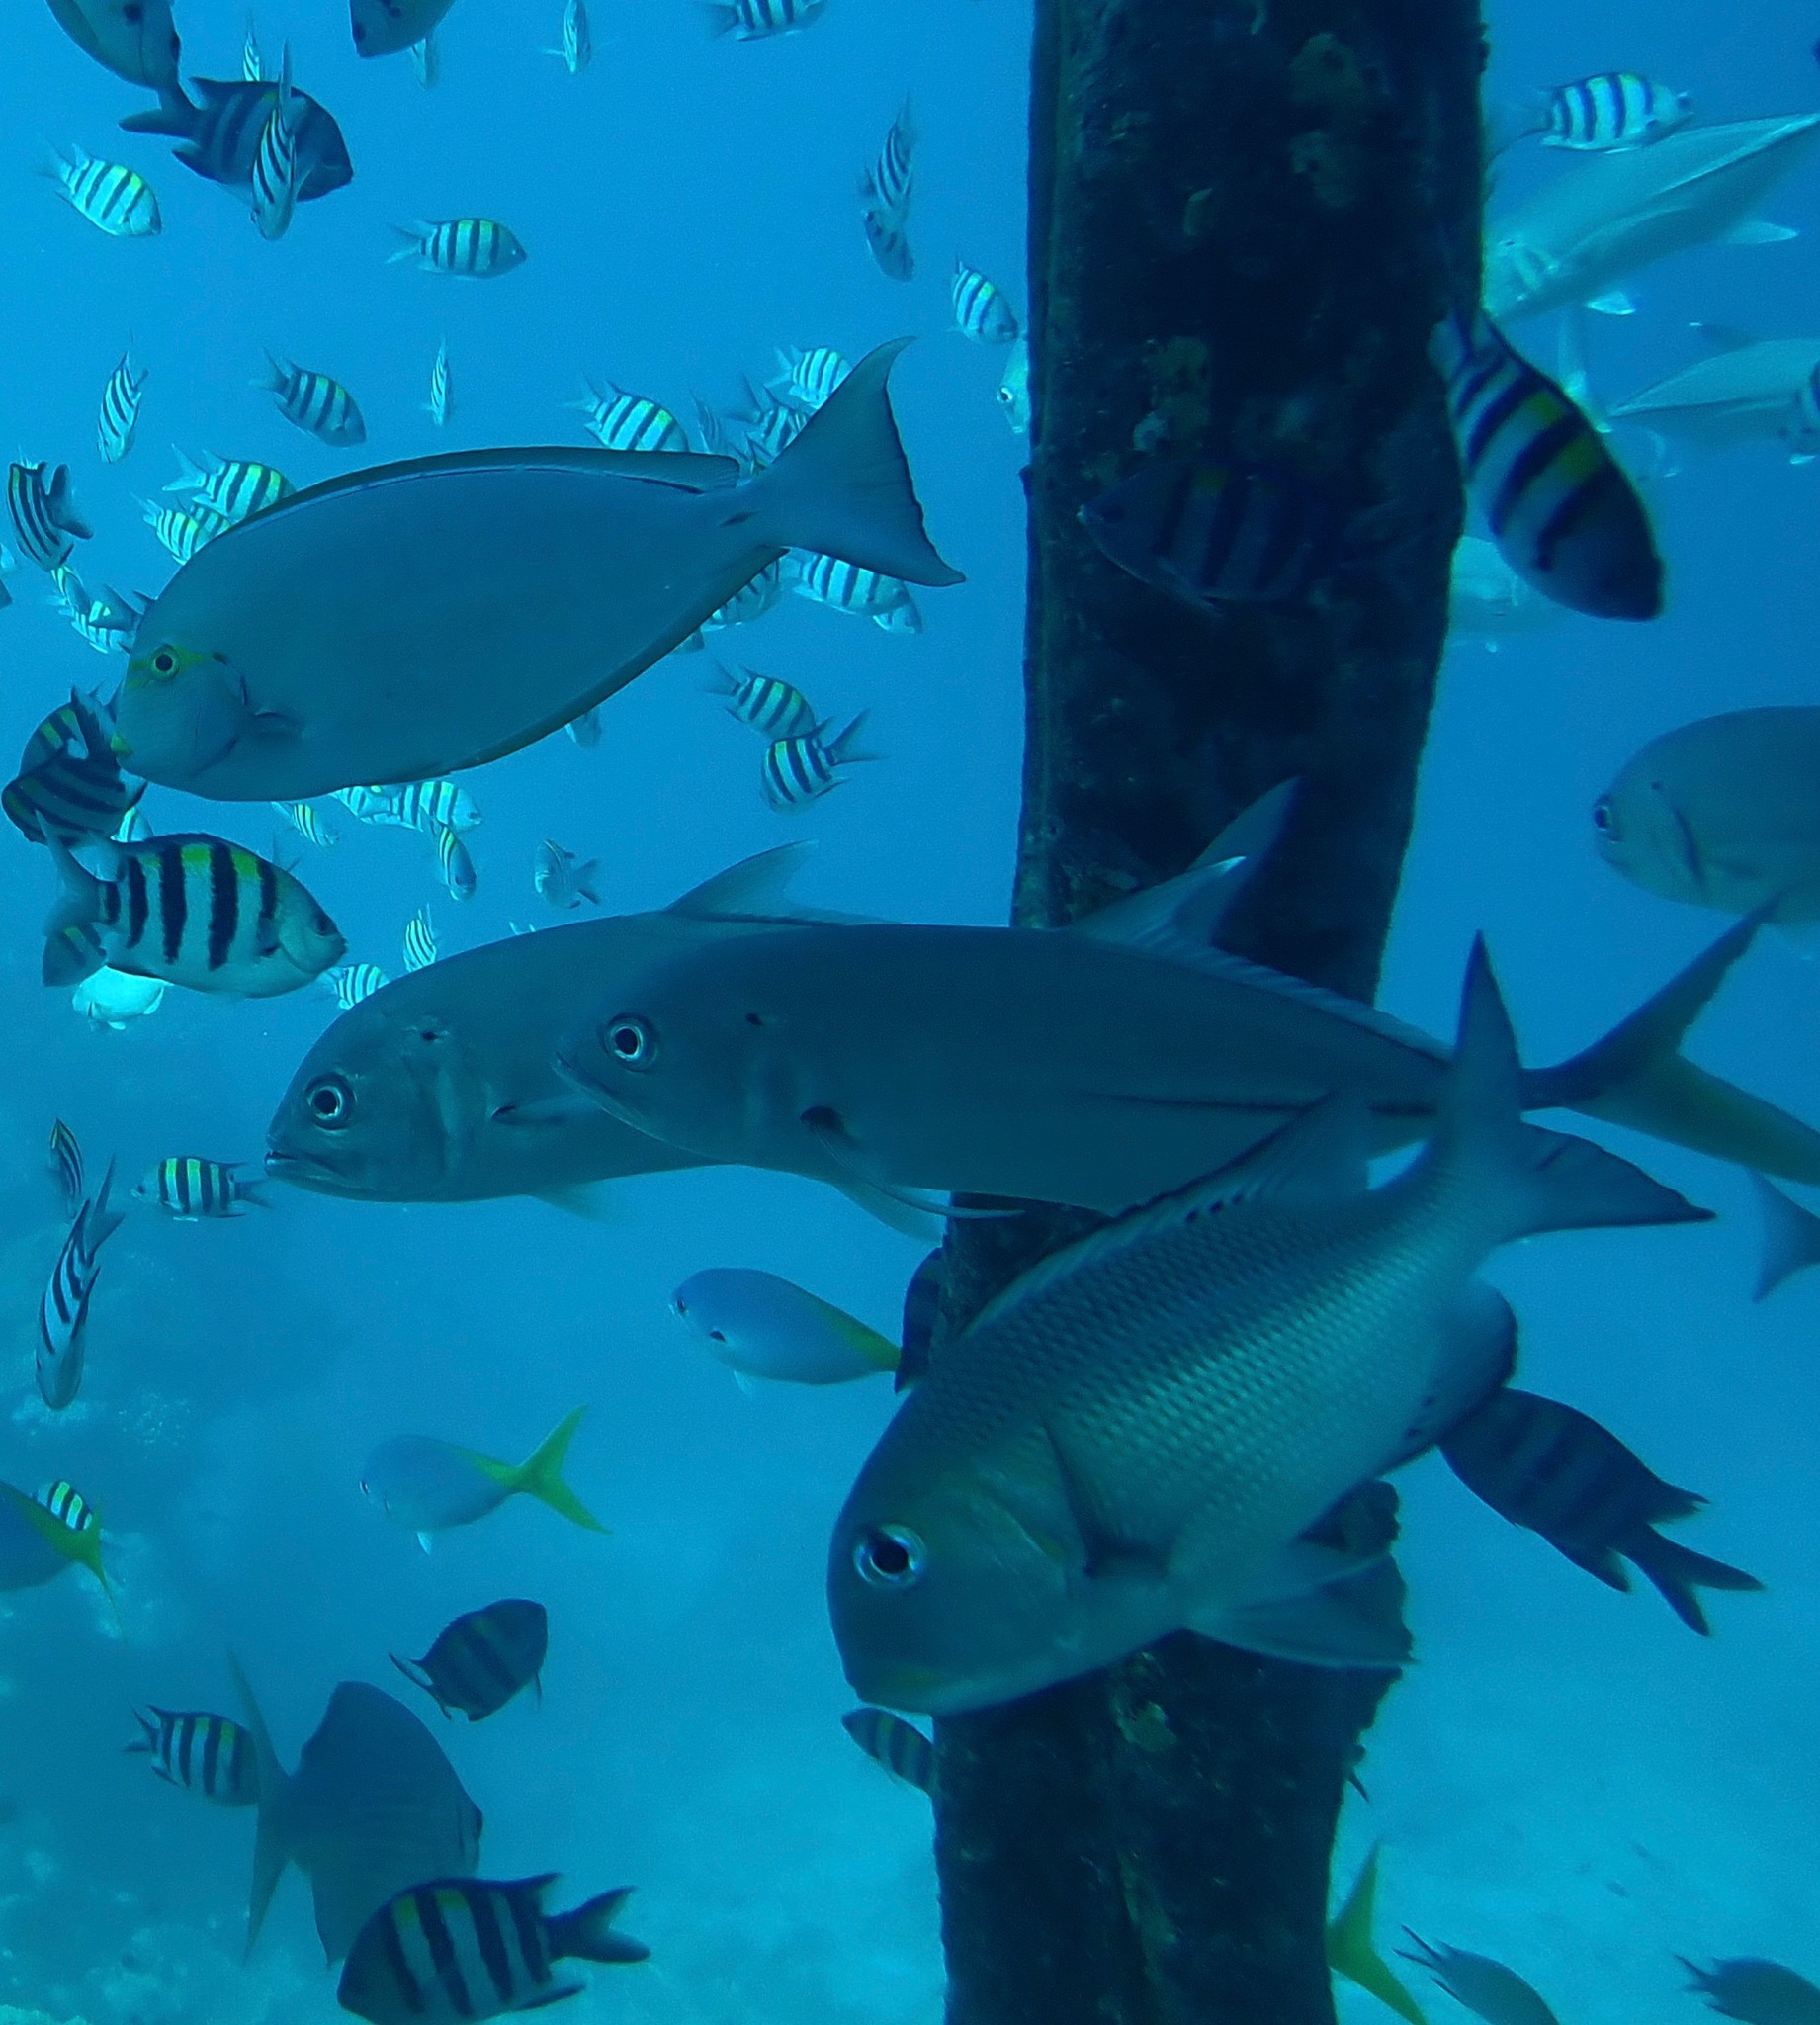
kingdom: Animalia
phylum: Chordata
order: Perciformes
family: Carangidae
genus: Caranx
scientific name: Caranx sexfasciatus
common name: Bigeye trevally
